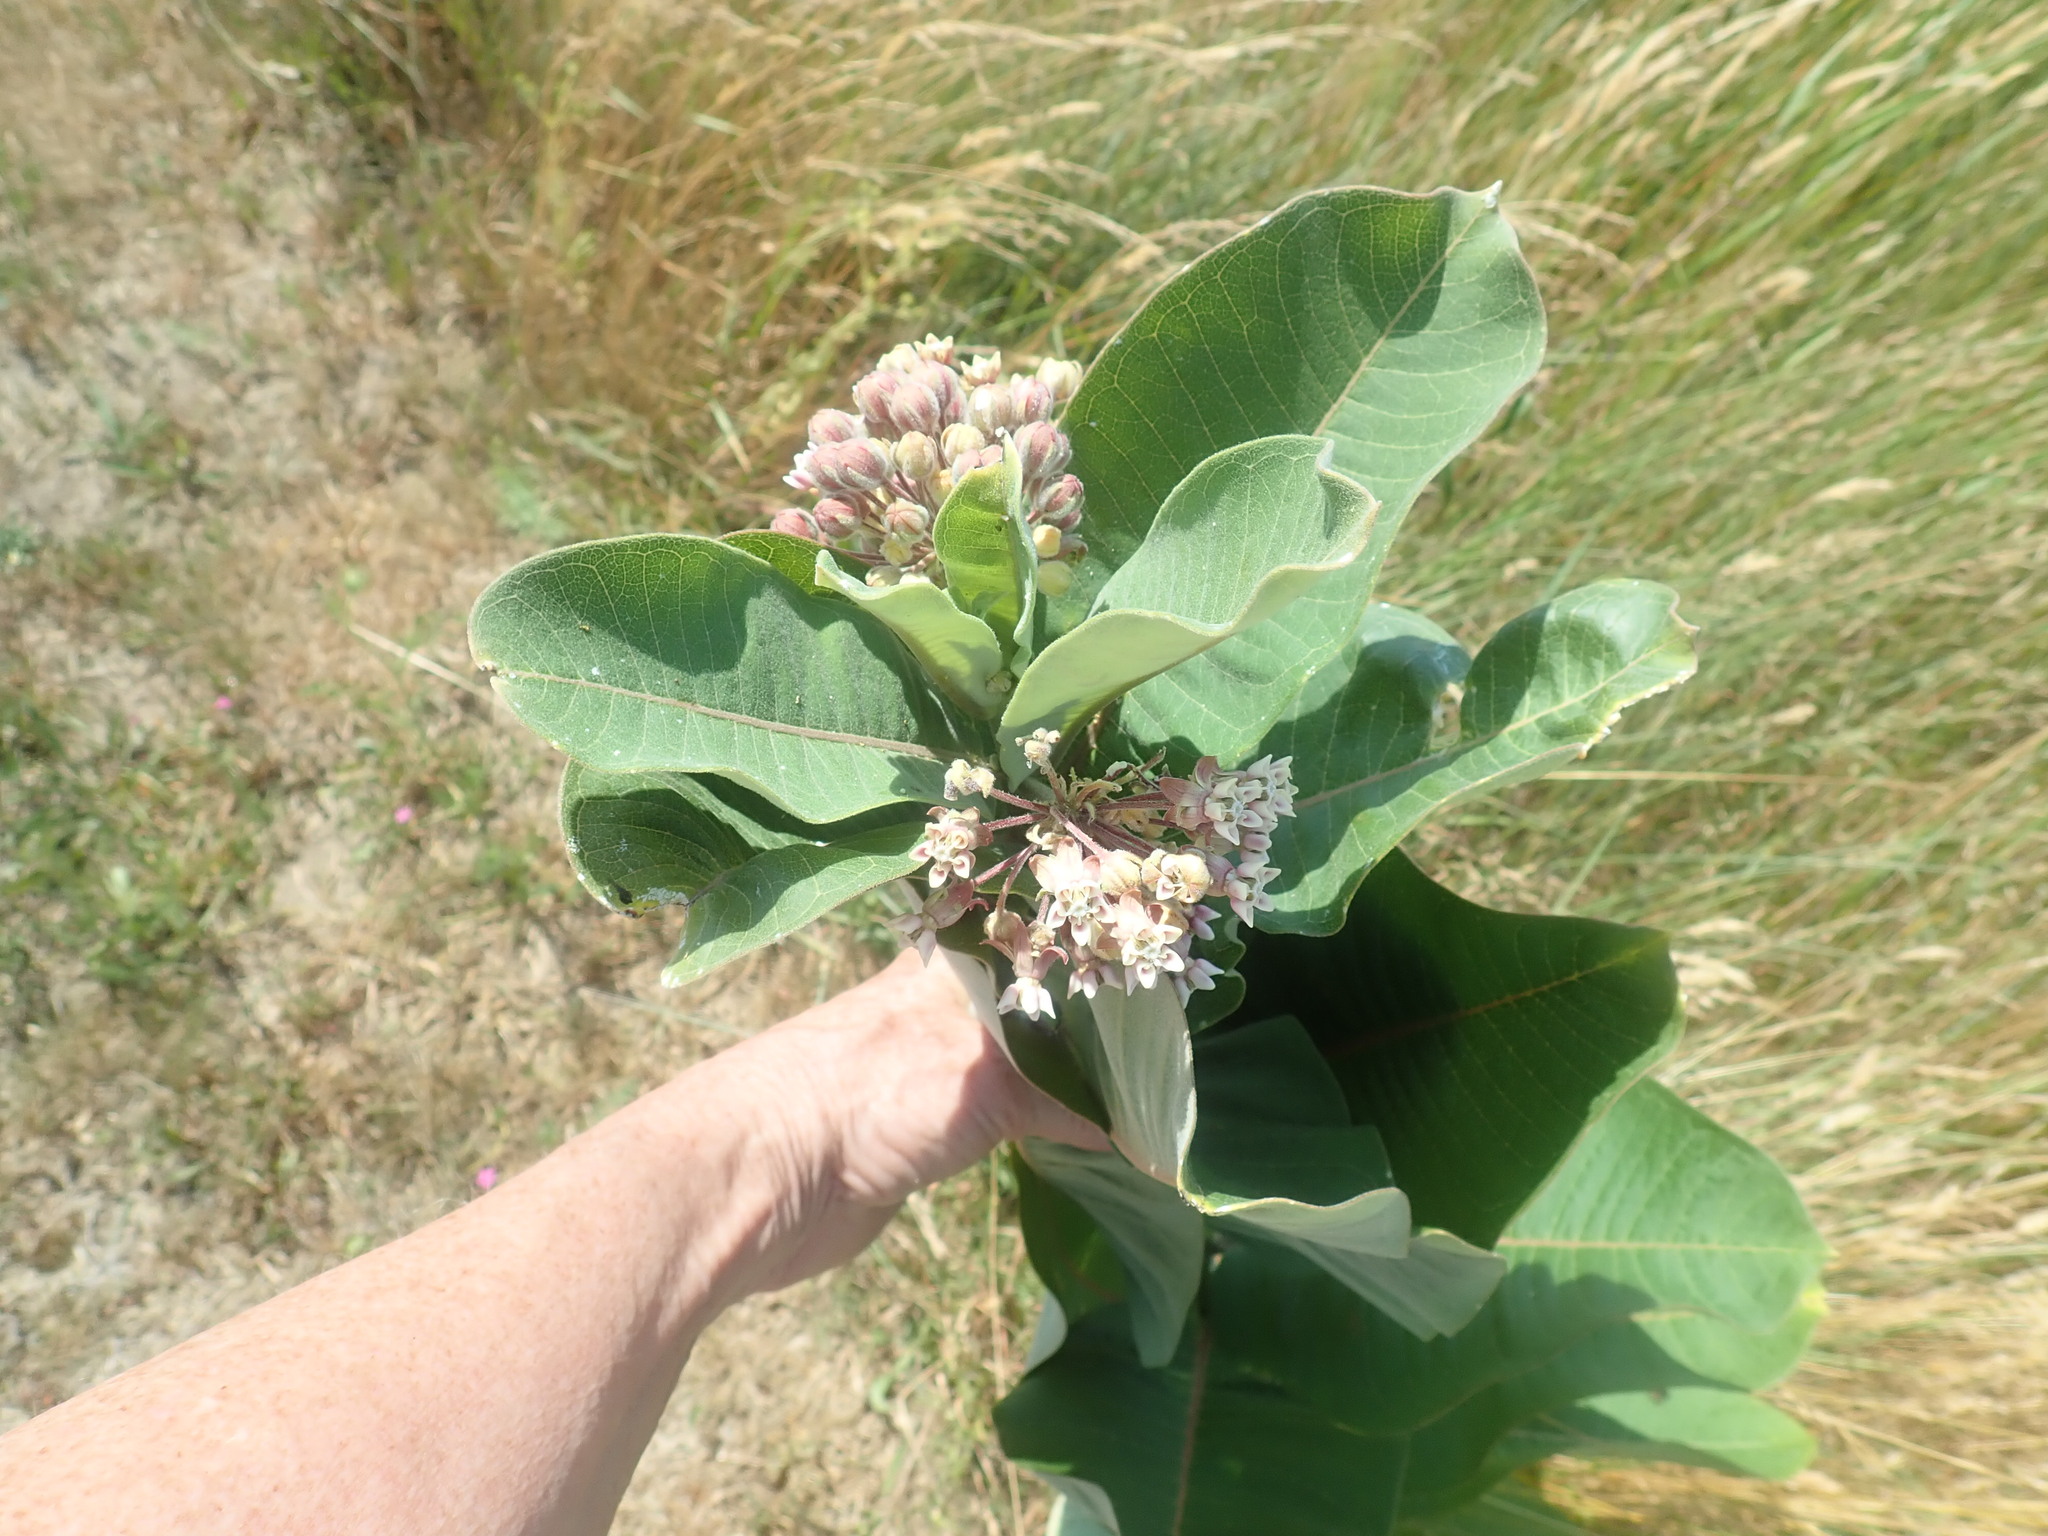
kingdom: Plantae
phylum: Tracheophyta
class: Magnoliopsida
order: Gentianales
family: Apocynaceae
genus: Asclepias
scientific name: Asclepias syriaca
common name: Common milkweed
